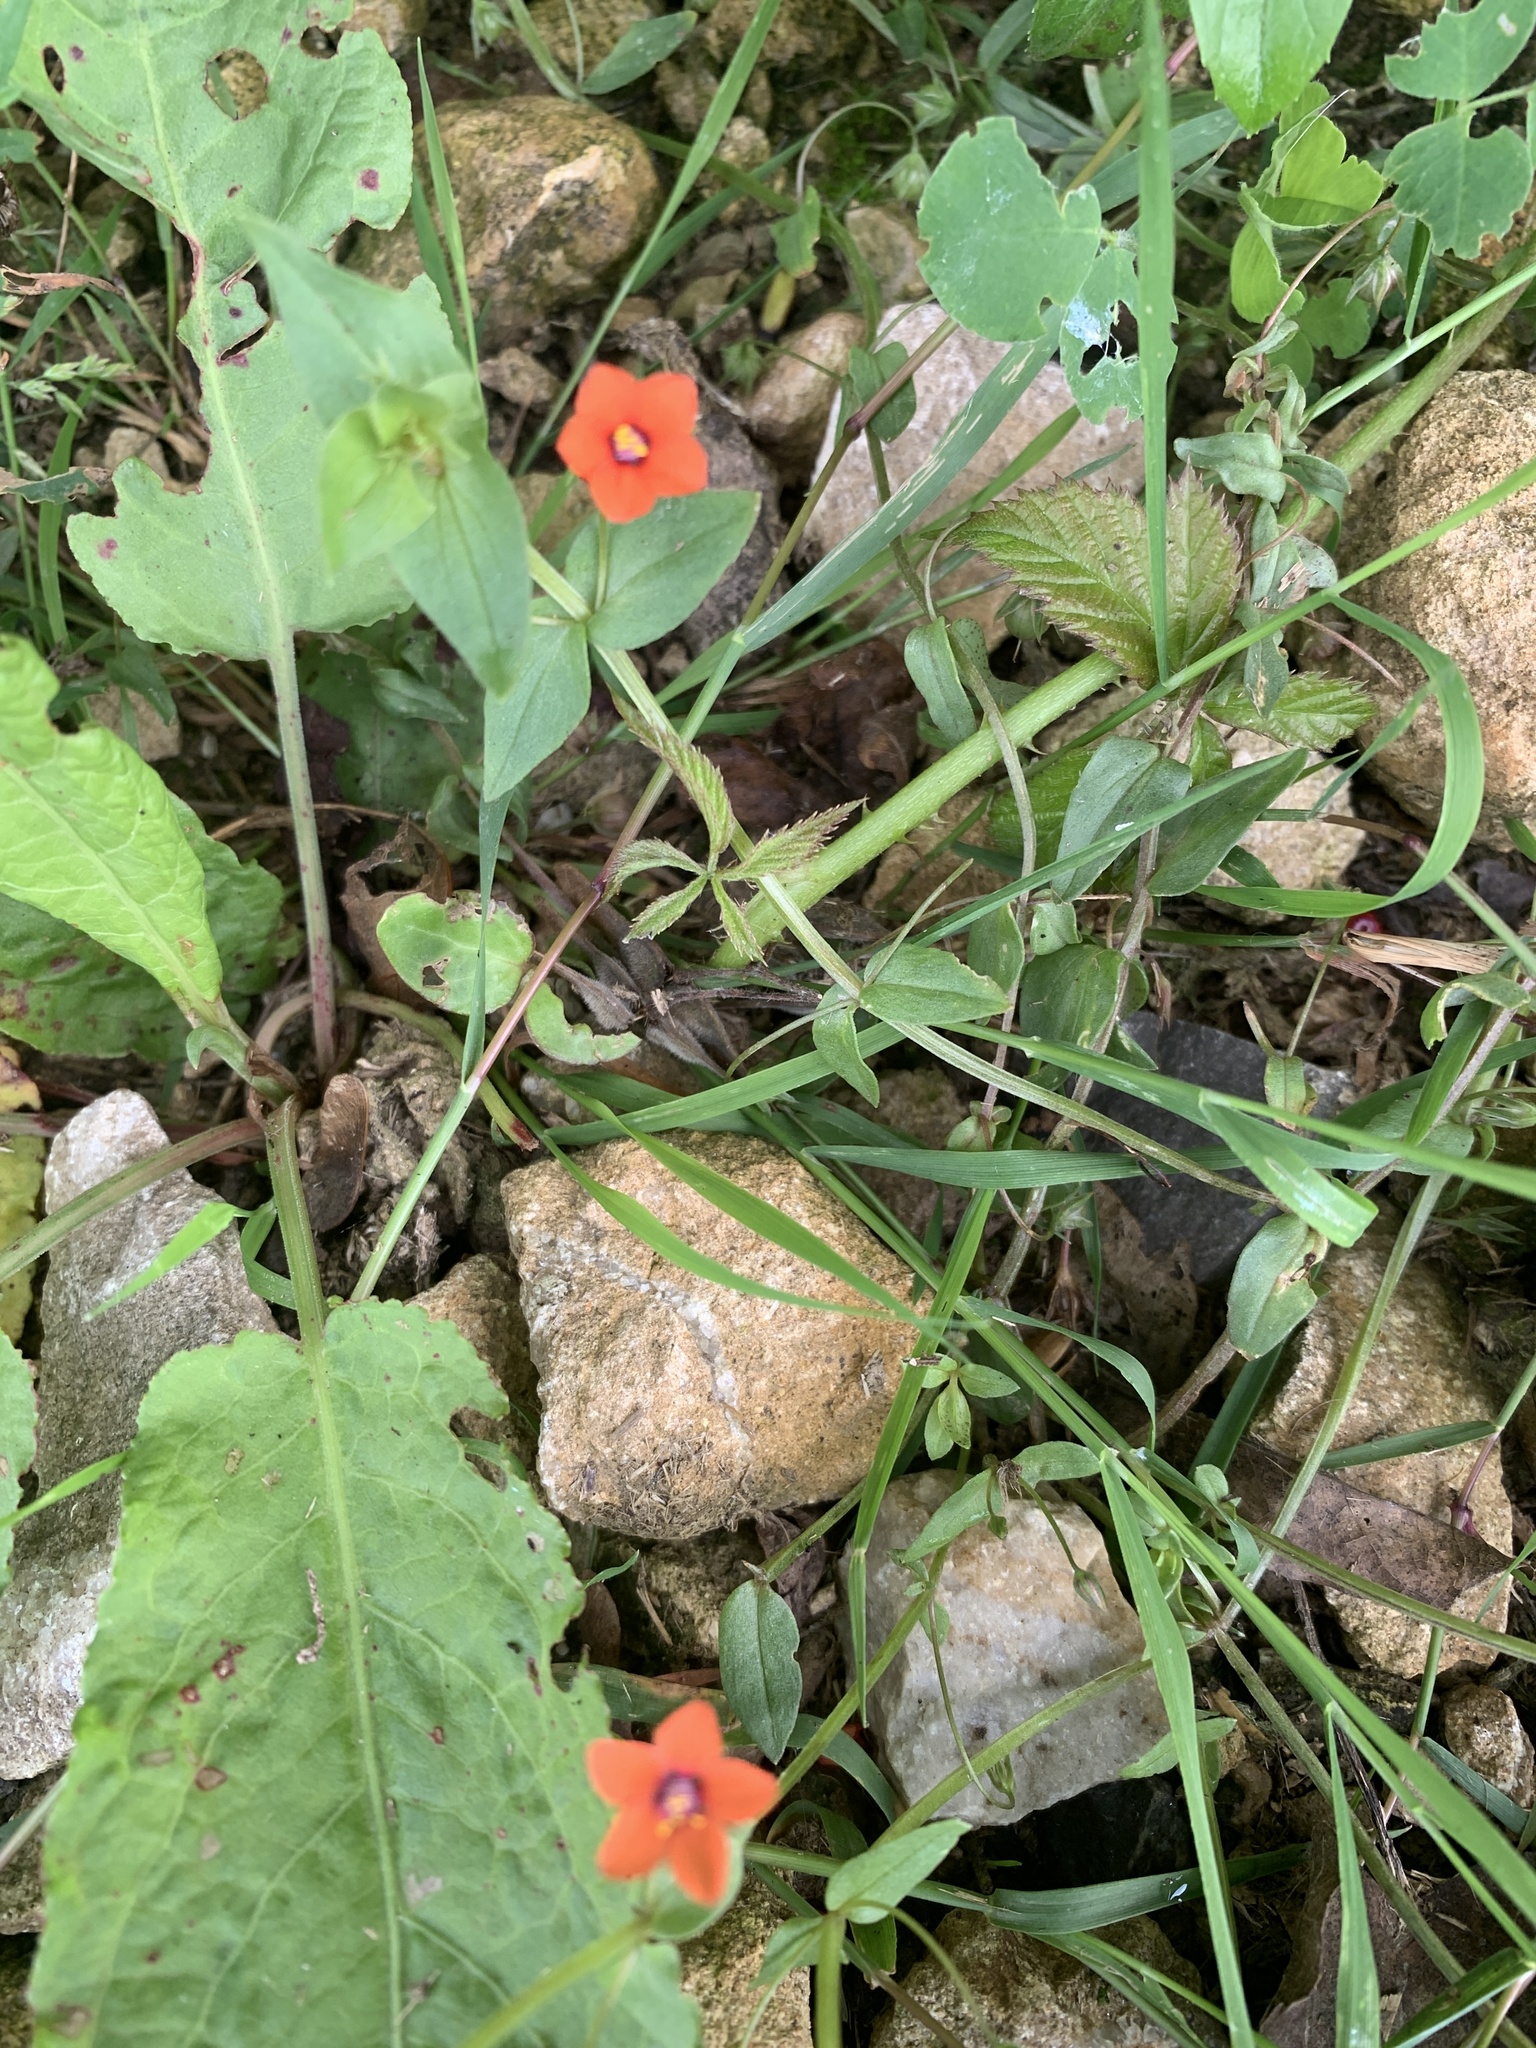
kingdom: Plantae
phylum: Tracheophyta
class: Magnoliopsida
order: Ericales
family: Primulaceae
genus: Lysimachia
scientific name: Lysimachia arvensis
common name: Scarlet pimpernel
